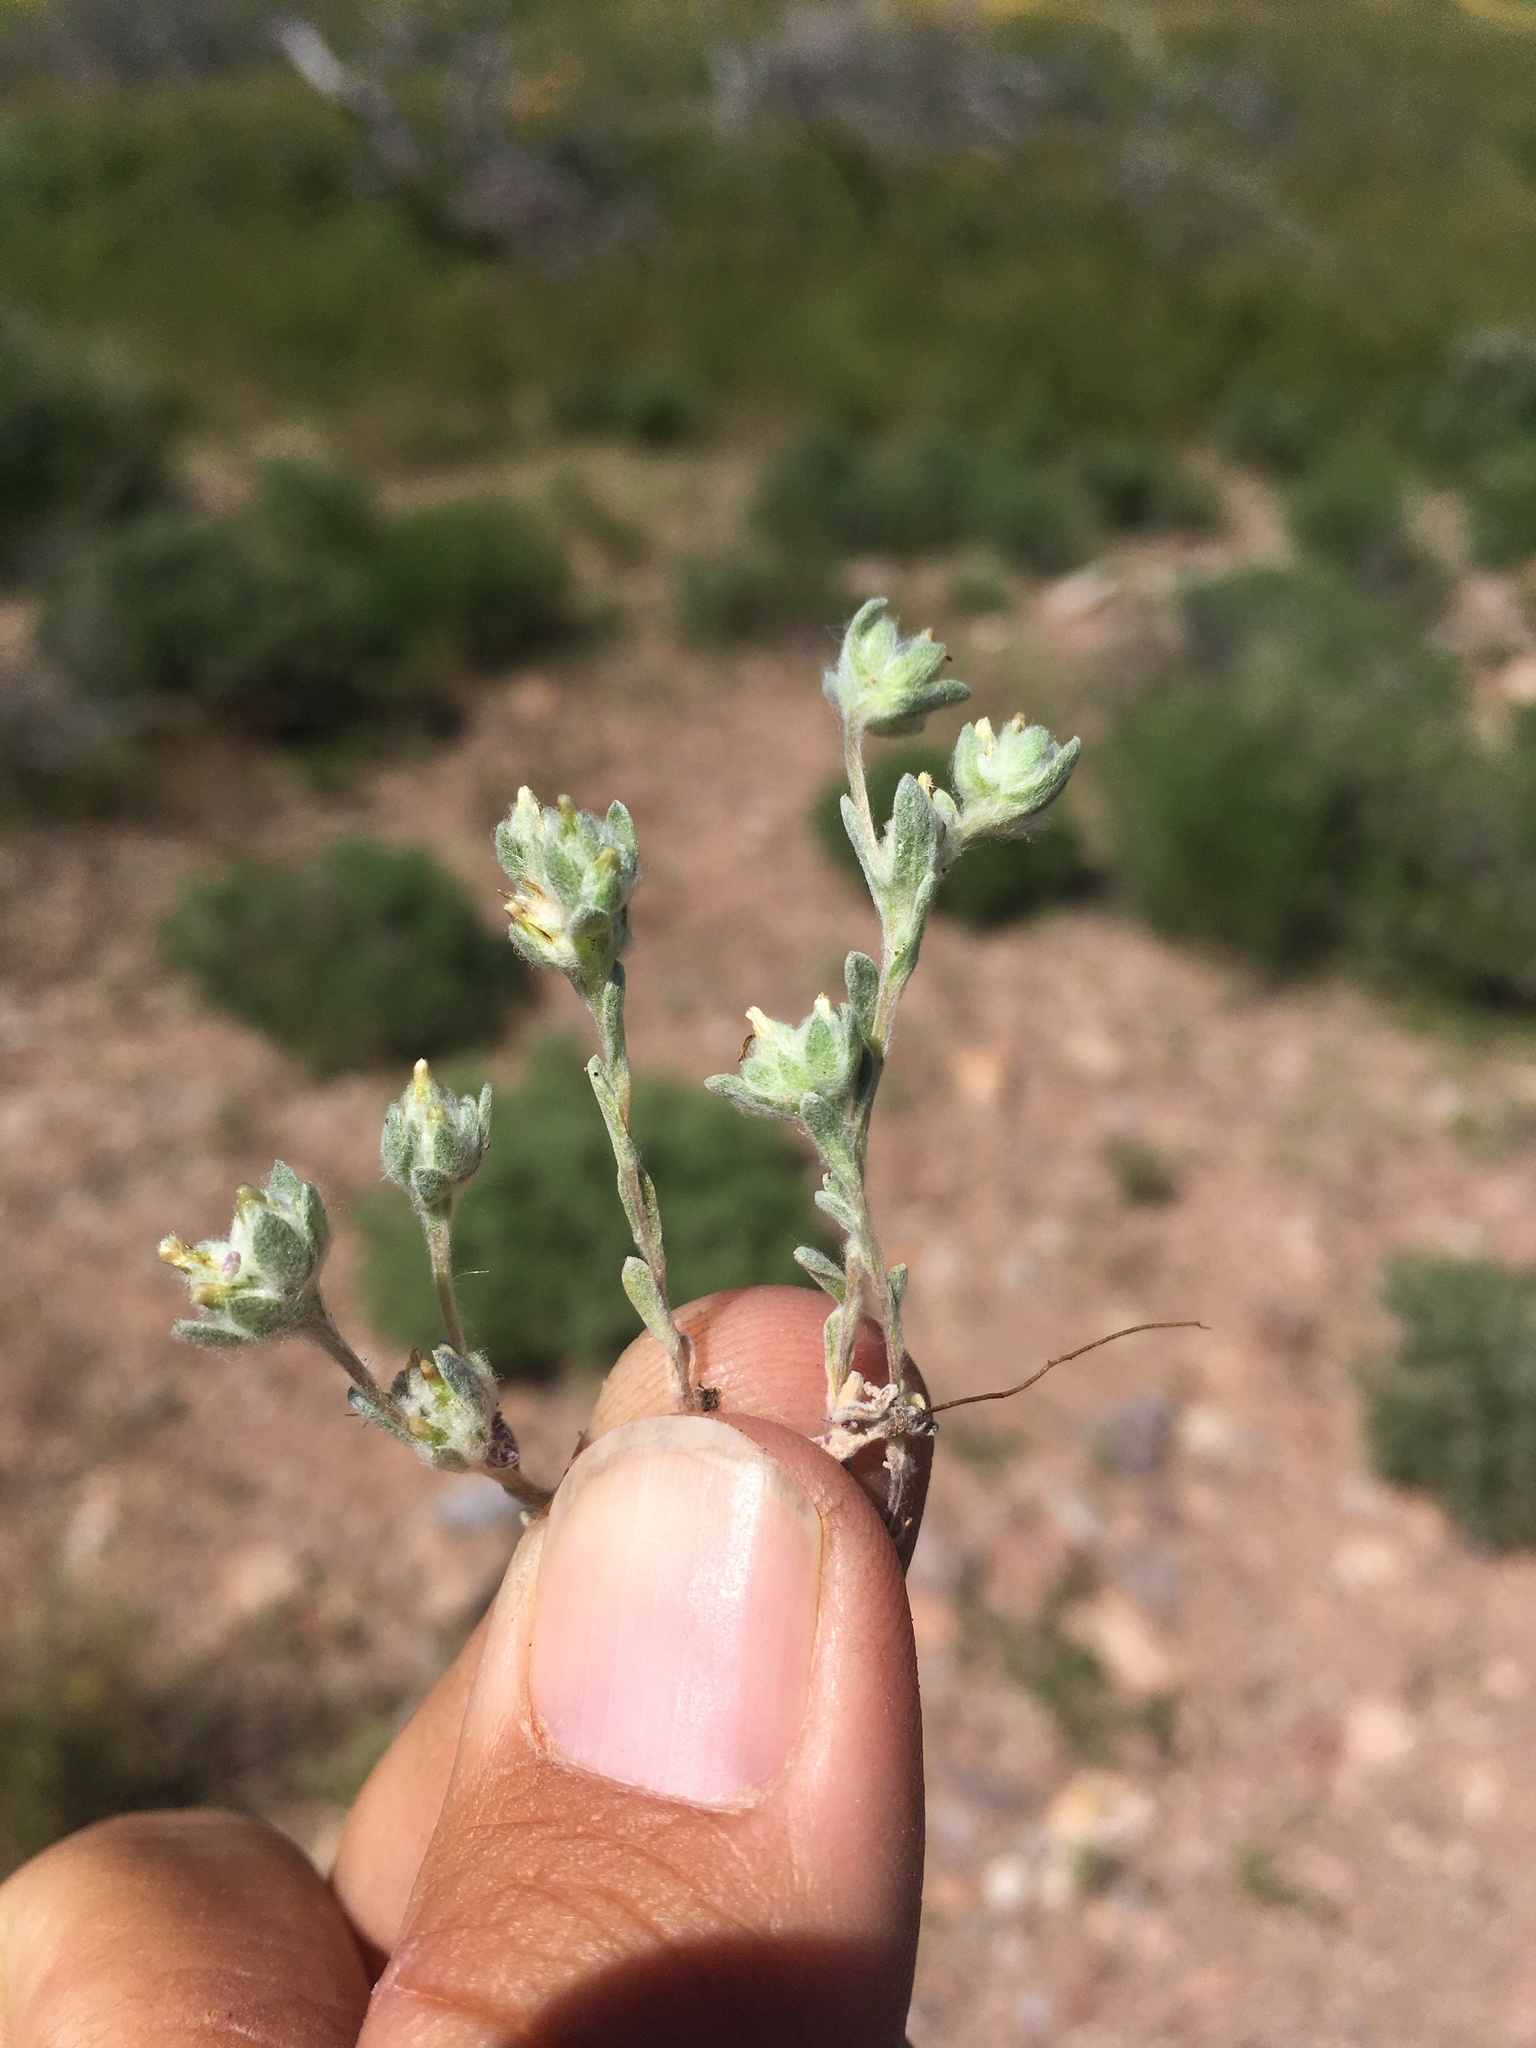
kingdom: Plantae
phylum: Tracheophyta
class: Magnoliopsida
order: Asterales
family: Asteraceae
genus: Logfia
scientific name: Logfia depressa
